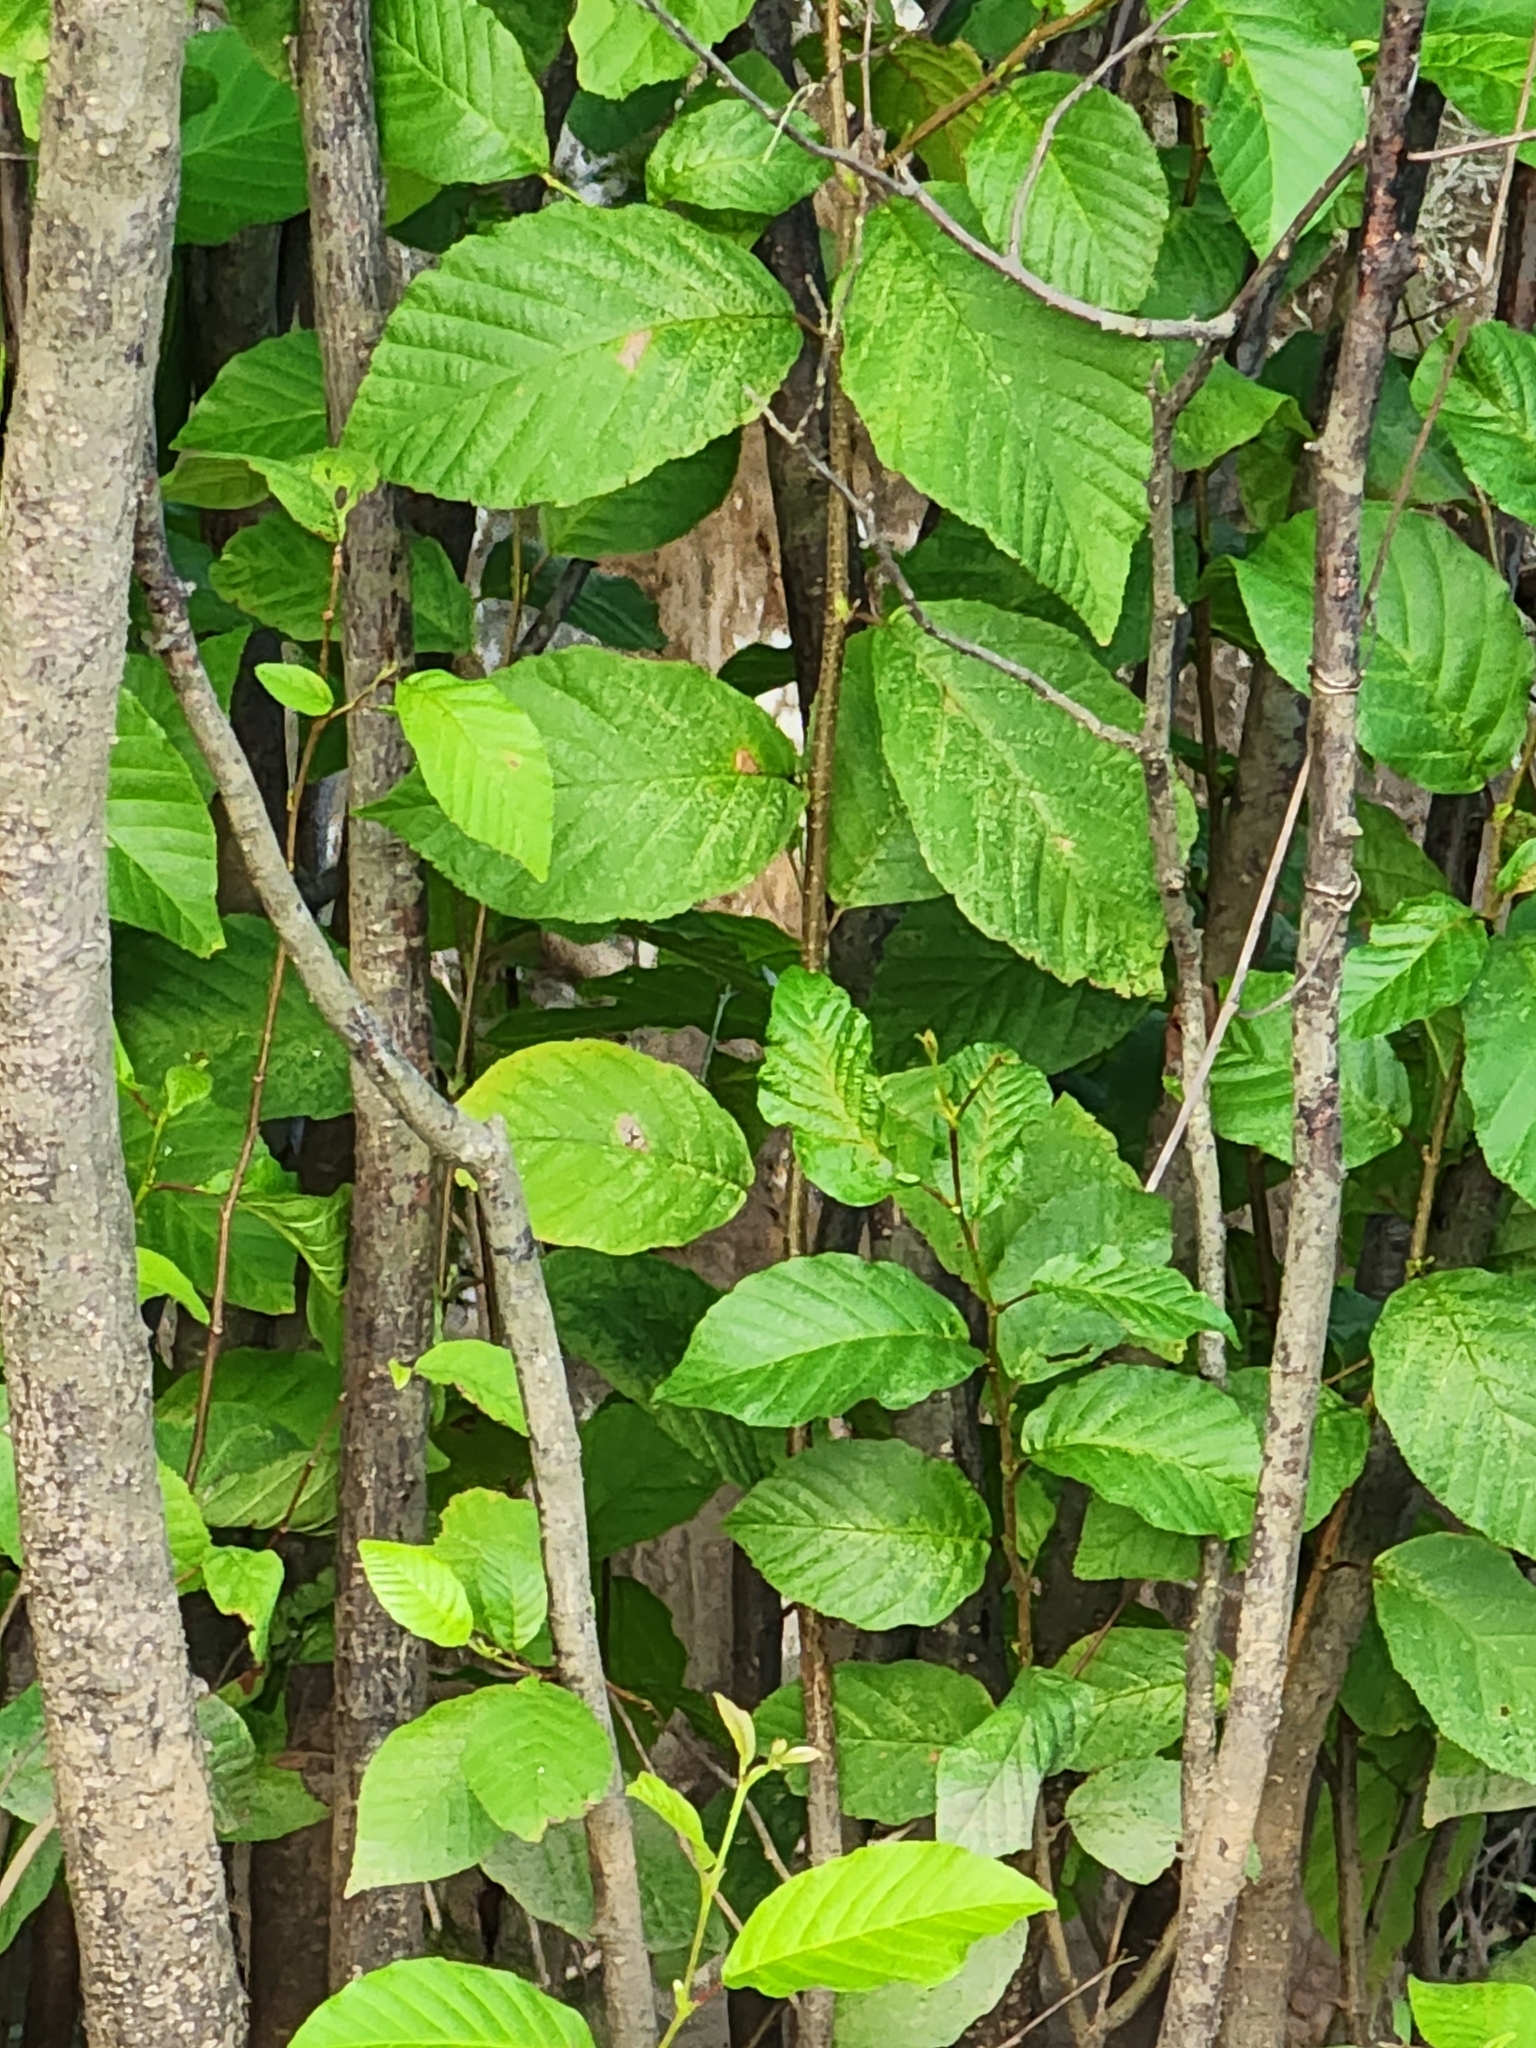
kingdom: Plantae
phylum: Tracheophyta
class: Magnoliopsida
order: Fagales
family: Betulaceae
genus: Alnus
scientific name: Alnus serrulata
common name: Hazel alder
